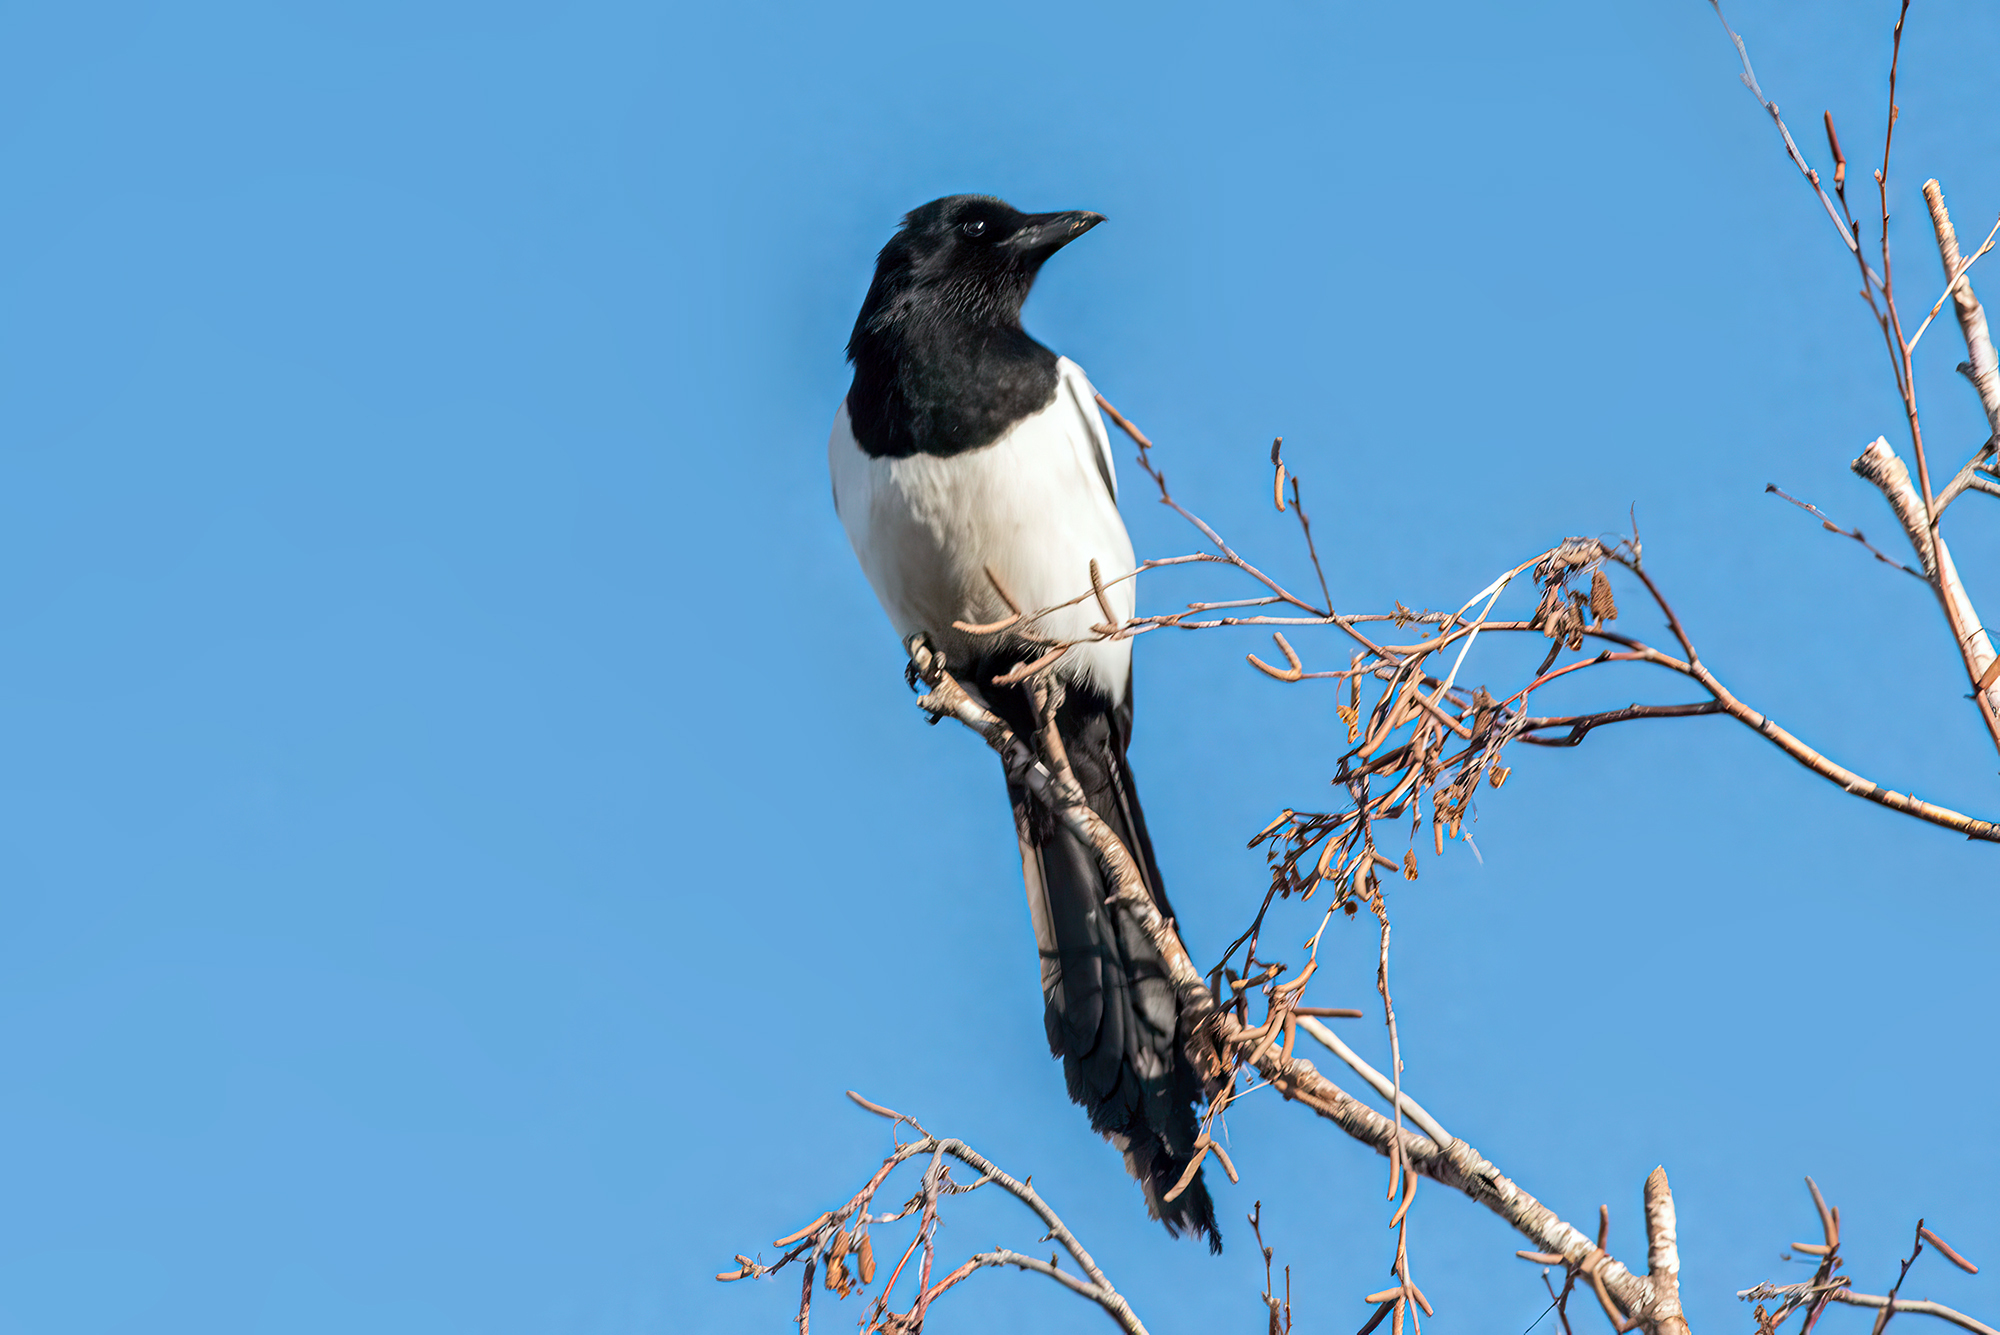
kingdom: Animalia
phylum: Chordata
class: Aves
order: Passeriformes
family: Corvidae
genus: Pica
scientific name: Pica pica
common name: Eurasian magpie
